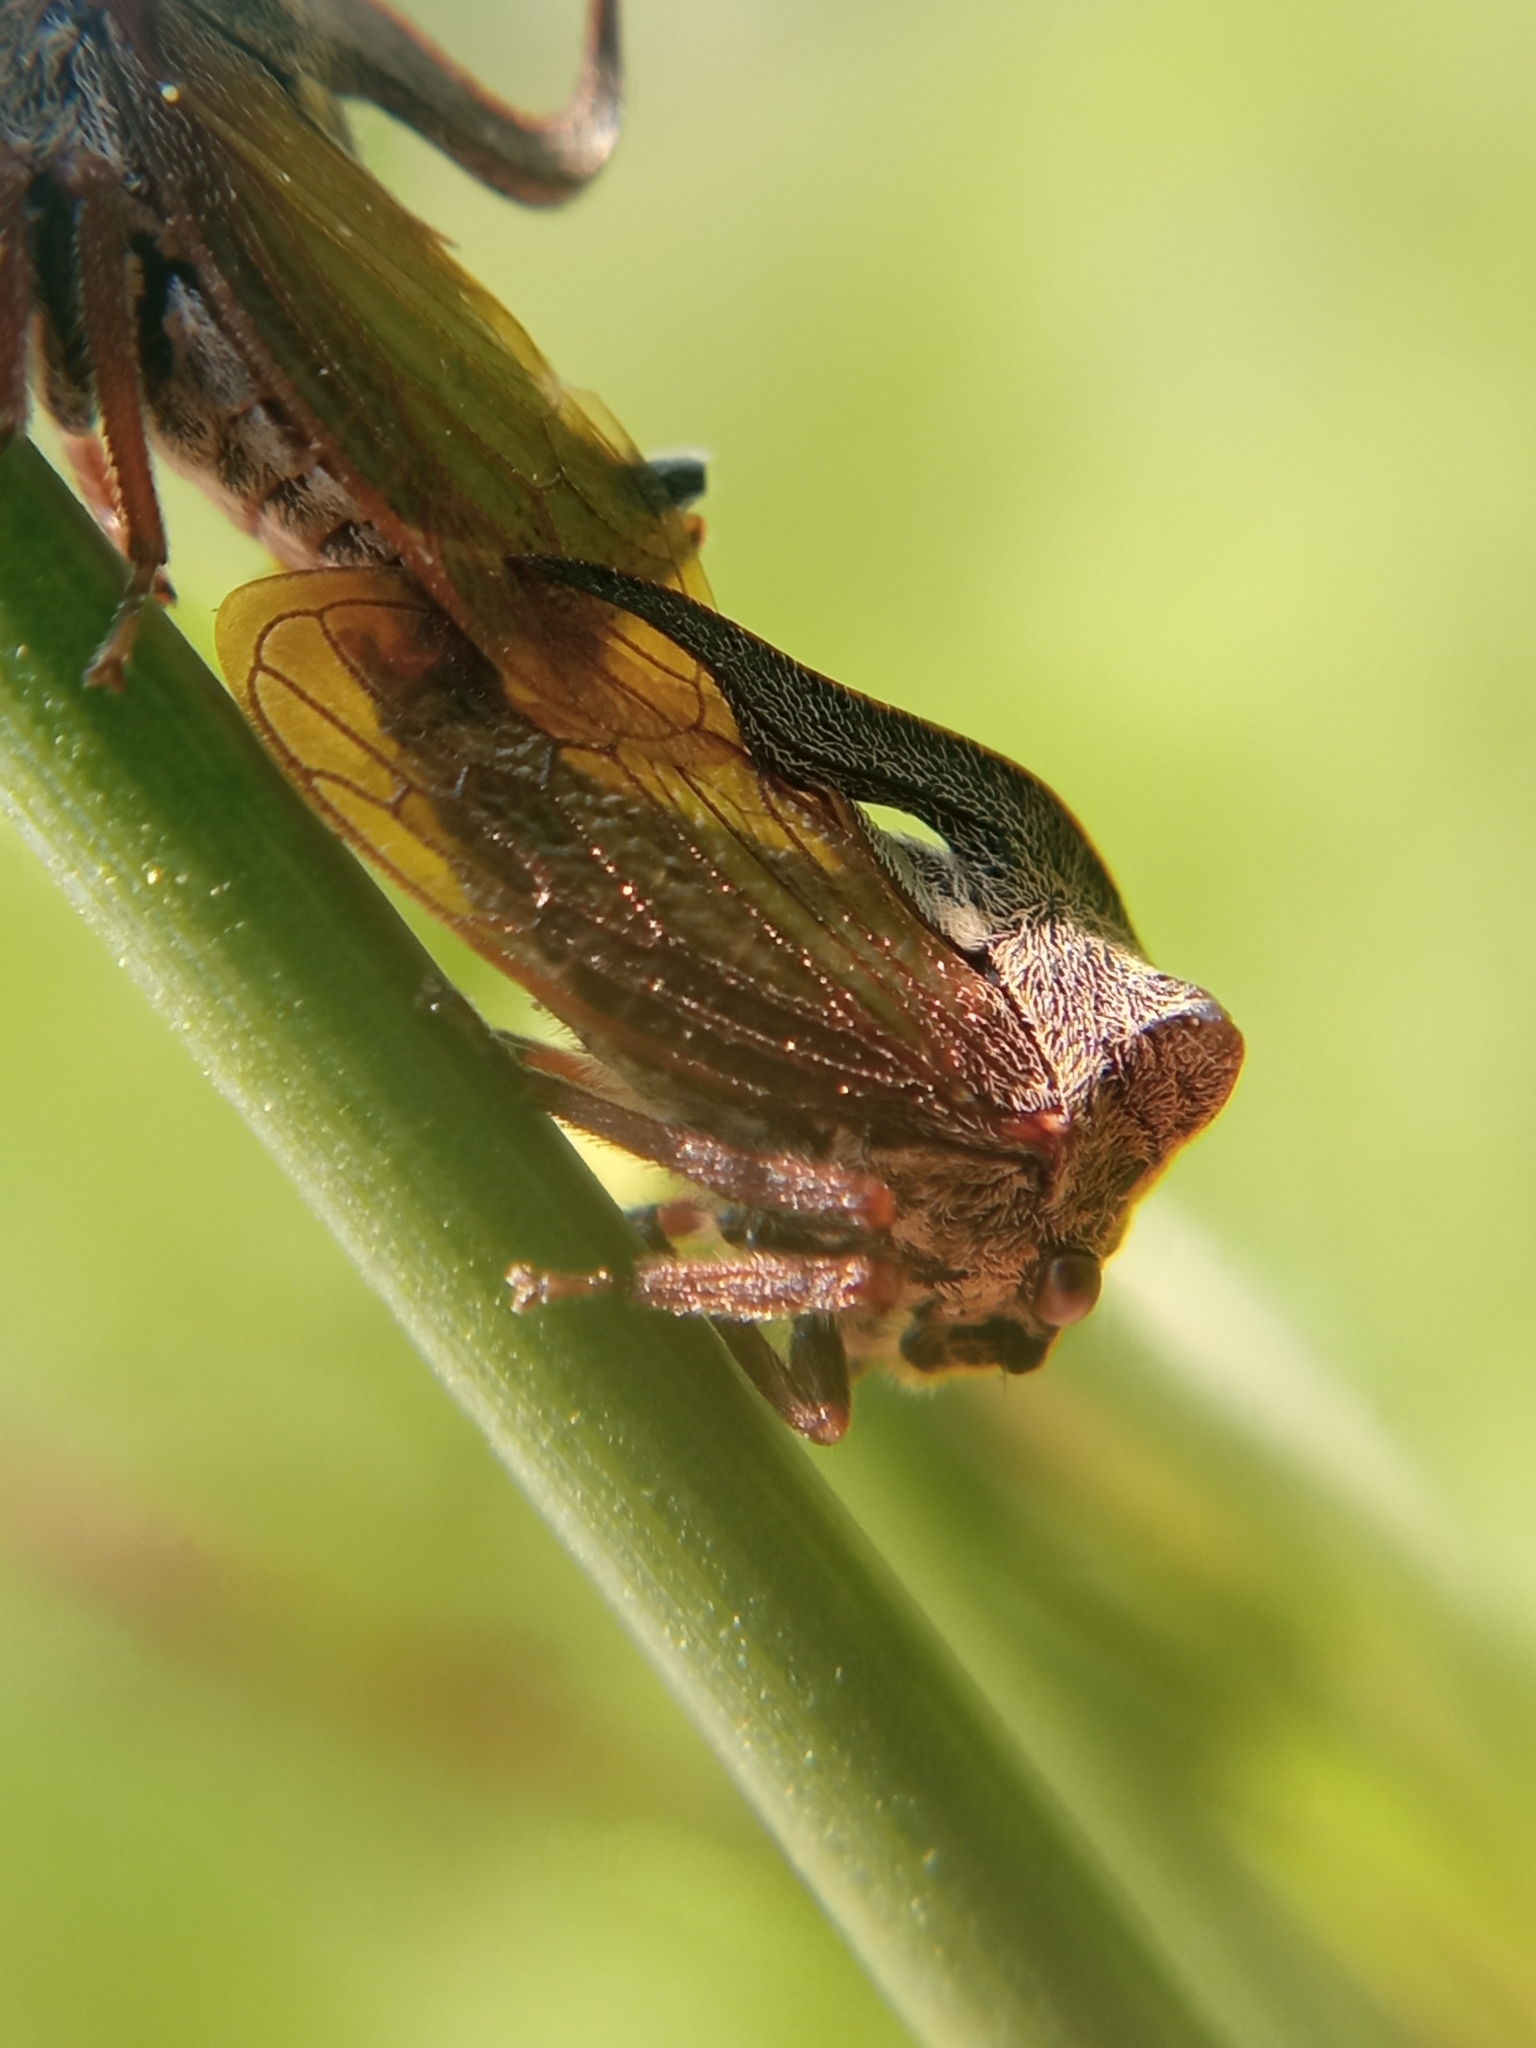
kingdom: Animalia
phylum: Arthropoda
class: Insecta
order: Hemiptera
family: Membracidae
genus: Centrotus
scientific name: Centrotus cornuta
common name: Treehopper
